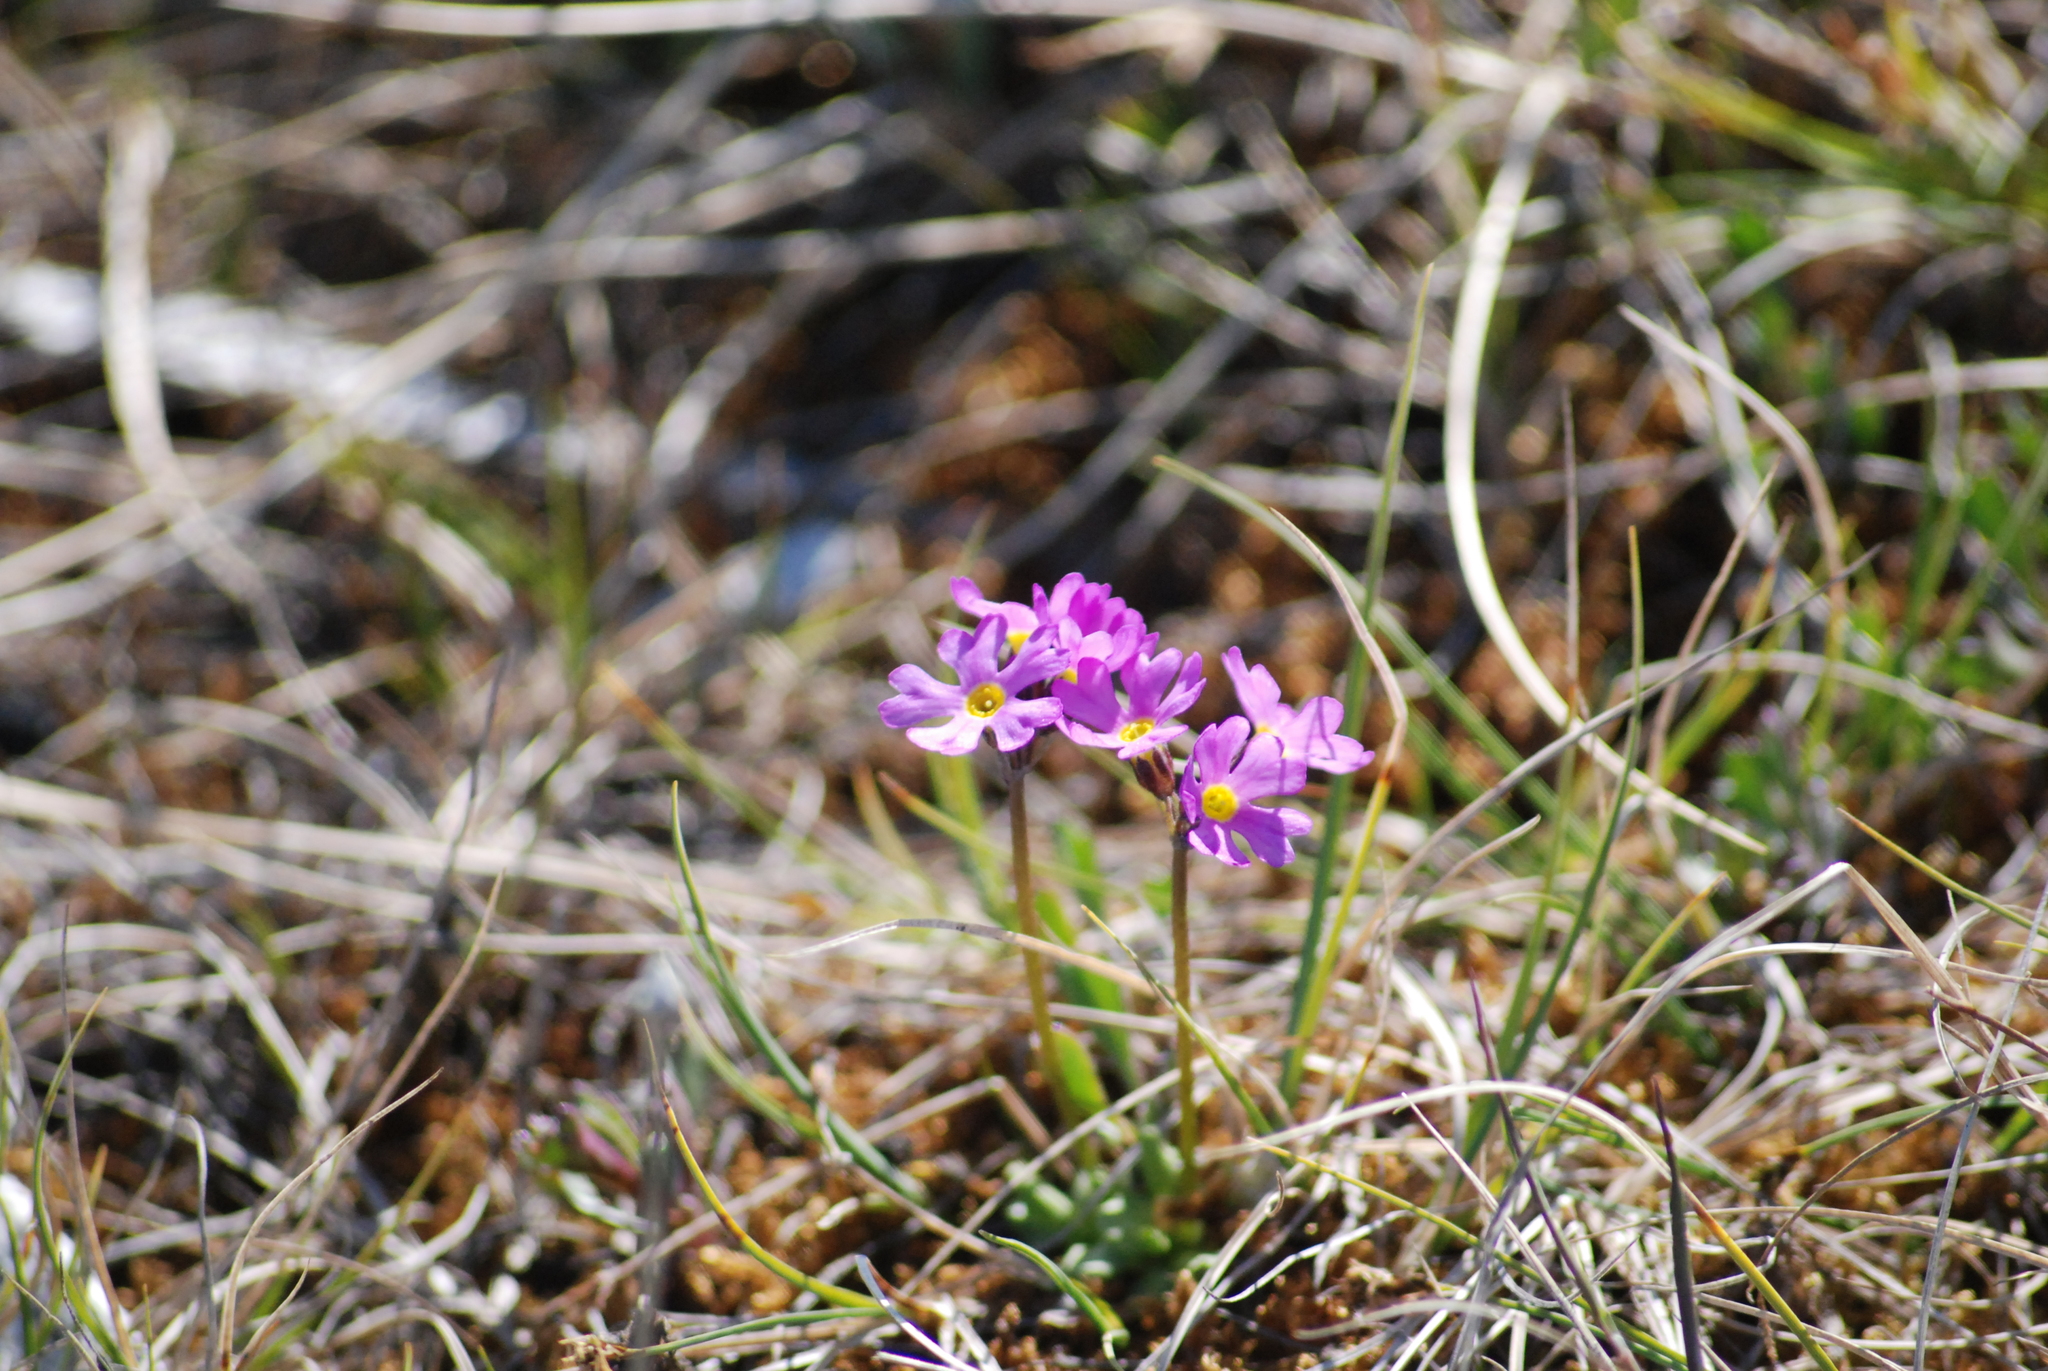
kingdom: Plantae
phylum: Tracheophyta
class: Magnoliopsida
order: Ericales
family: Primulaceae
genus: Primula
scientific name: Primula borealis
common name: Northern primrose
